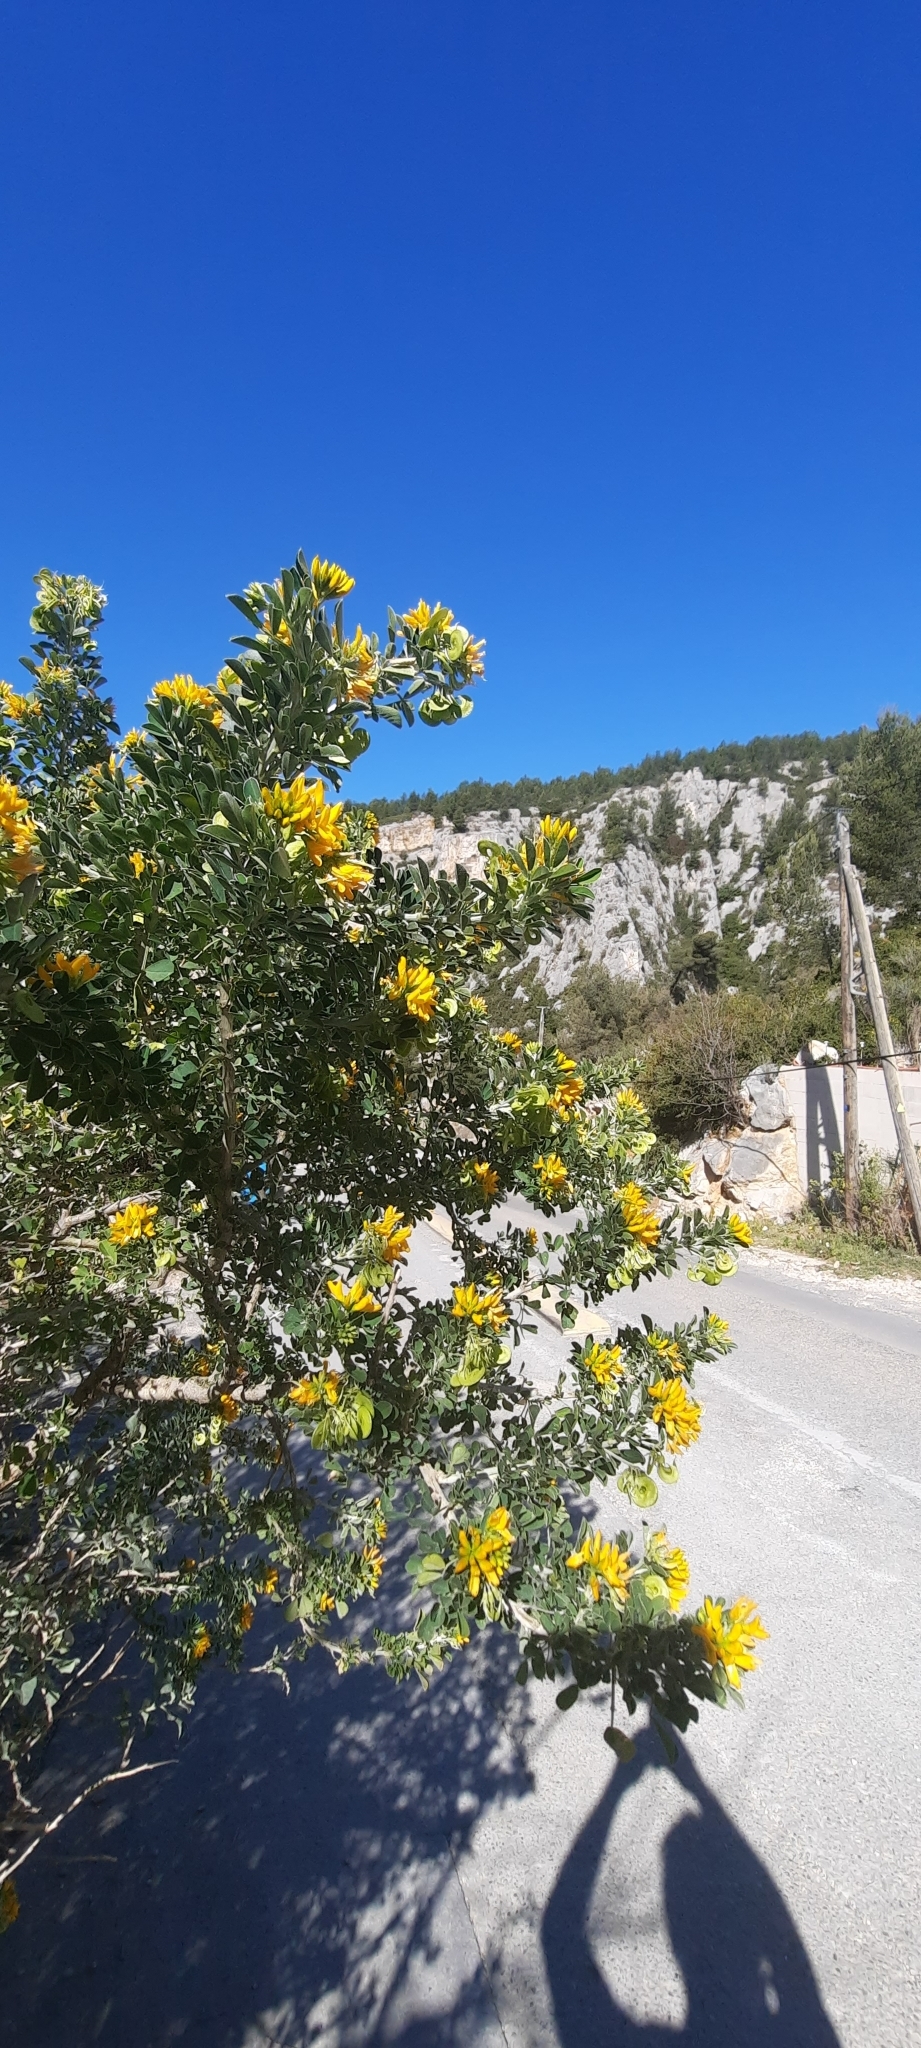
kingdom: Plantae
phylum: Tracheophyta
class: Magnoliopsida
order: Fabales
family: Fabaceae
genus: Medicago
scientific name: Medicago arborea
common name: Moon trefoil
